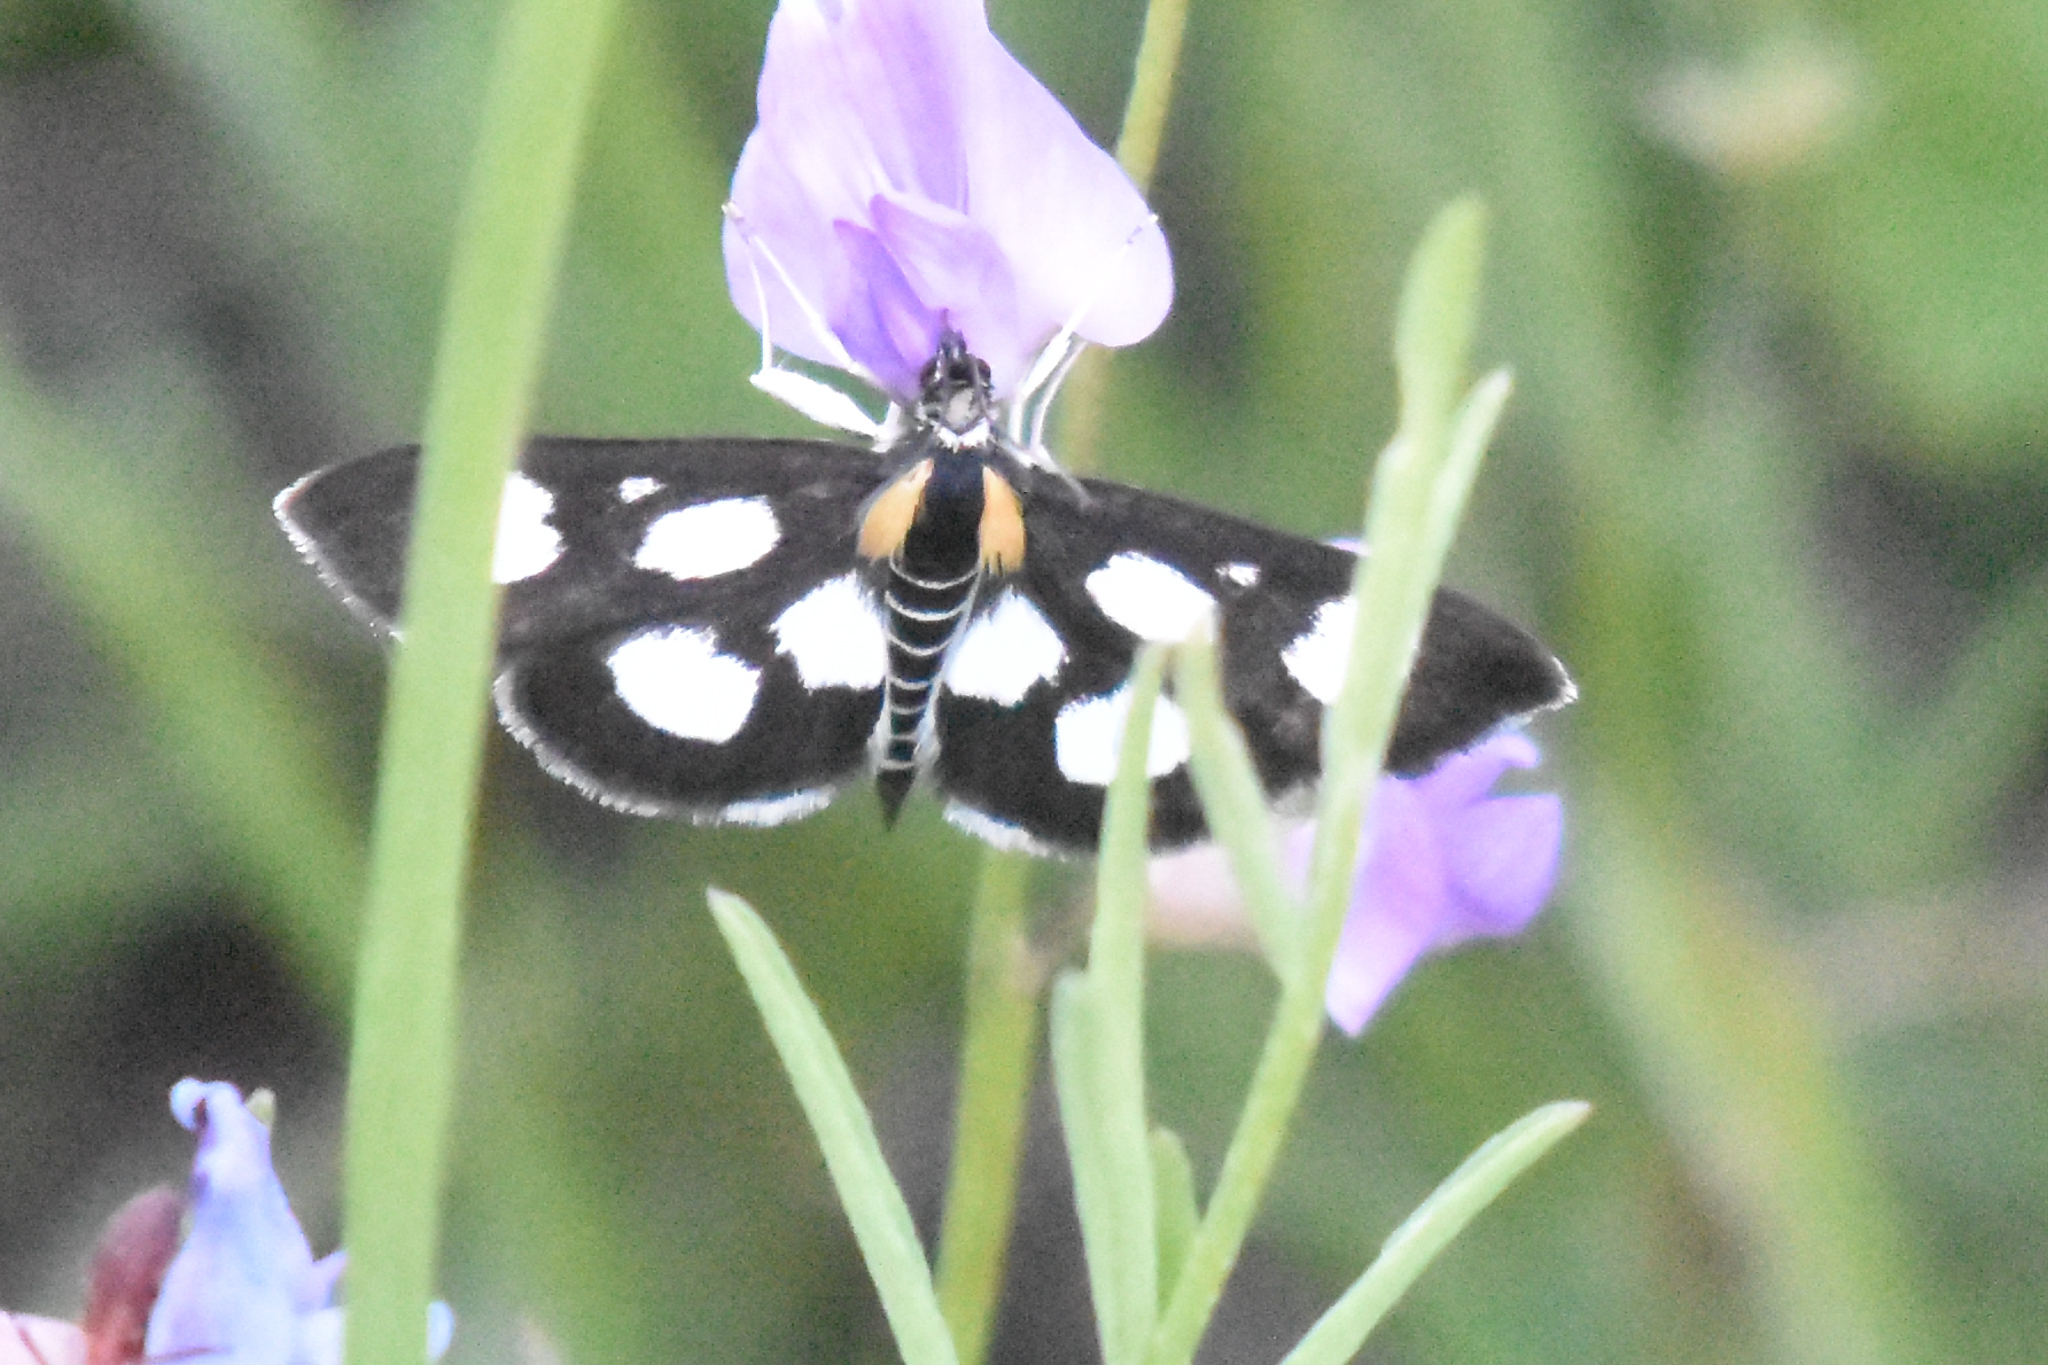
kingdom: Animalia
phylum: Arthropoda
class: Insecta
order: Lepidoptera
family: Crambidae
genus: Anania
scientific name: Anania funebris
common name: White-spotted sable moth
